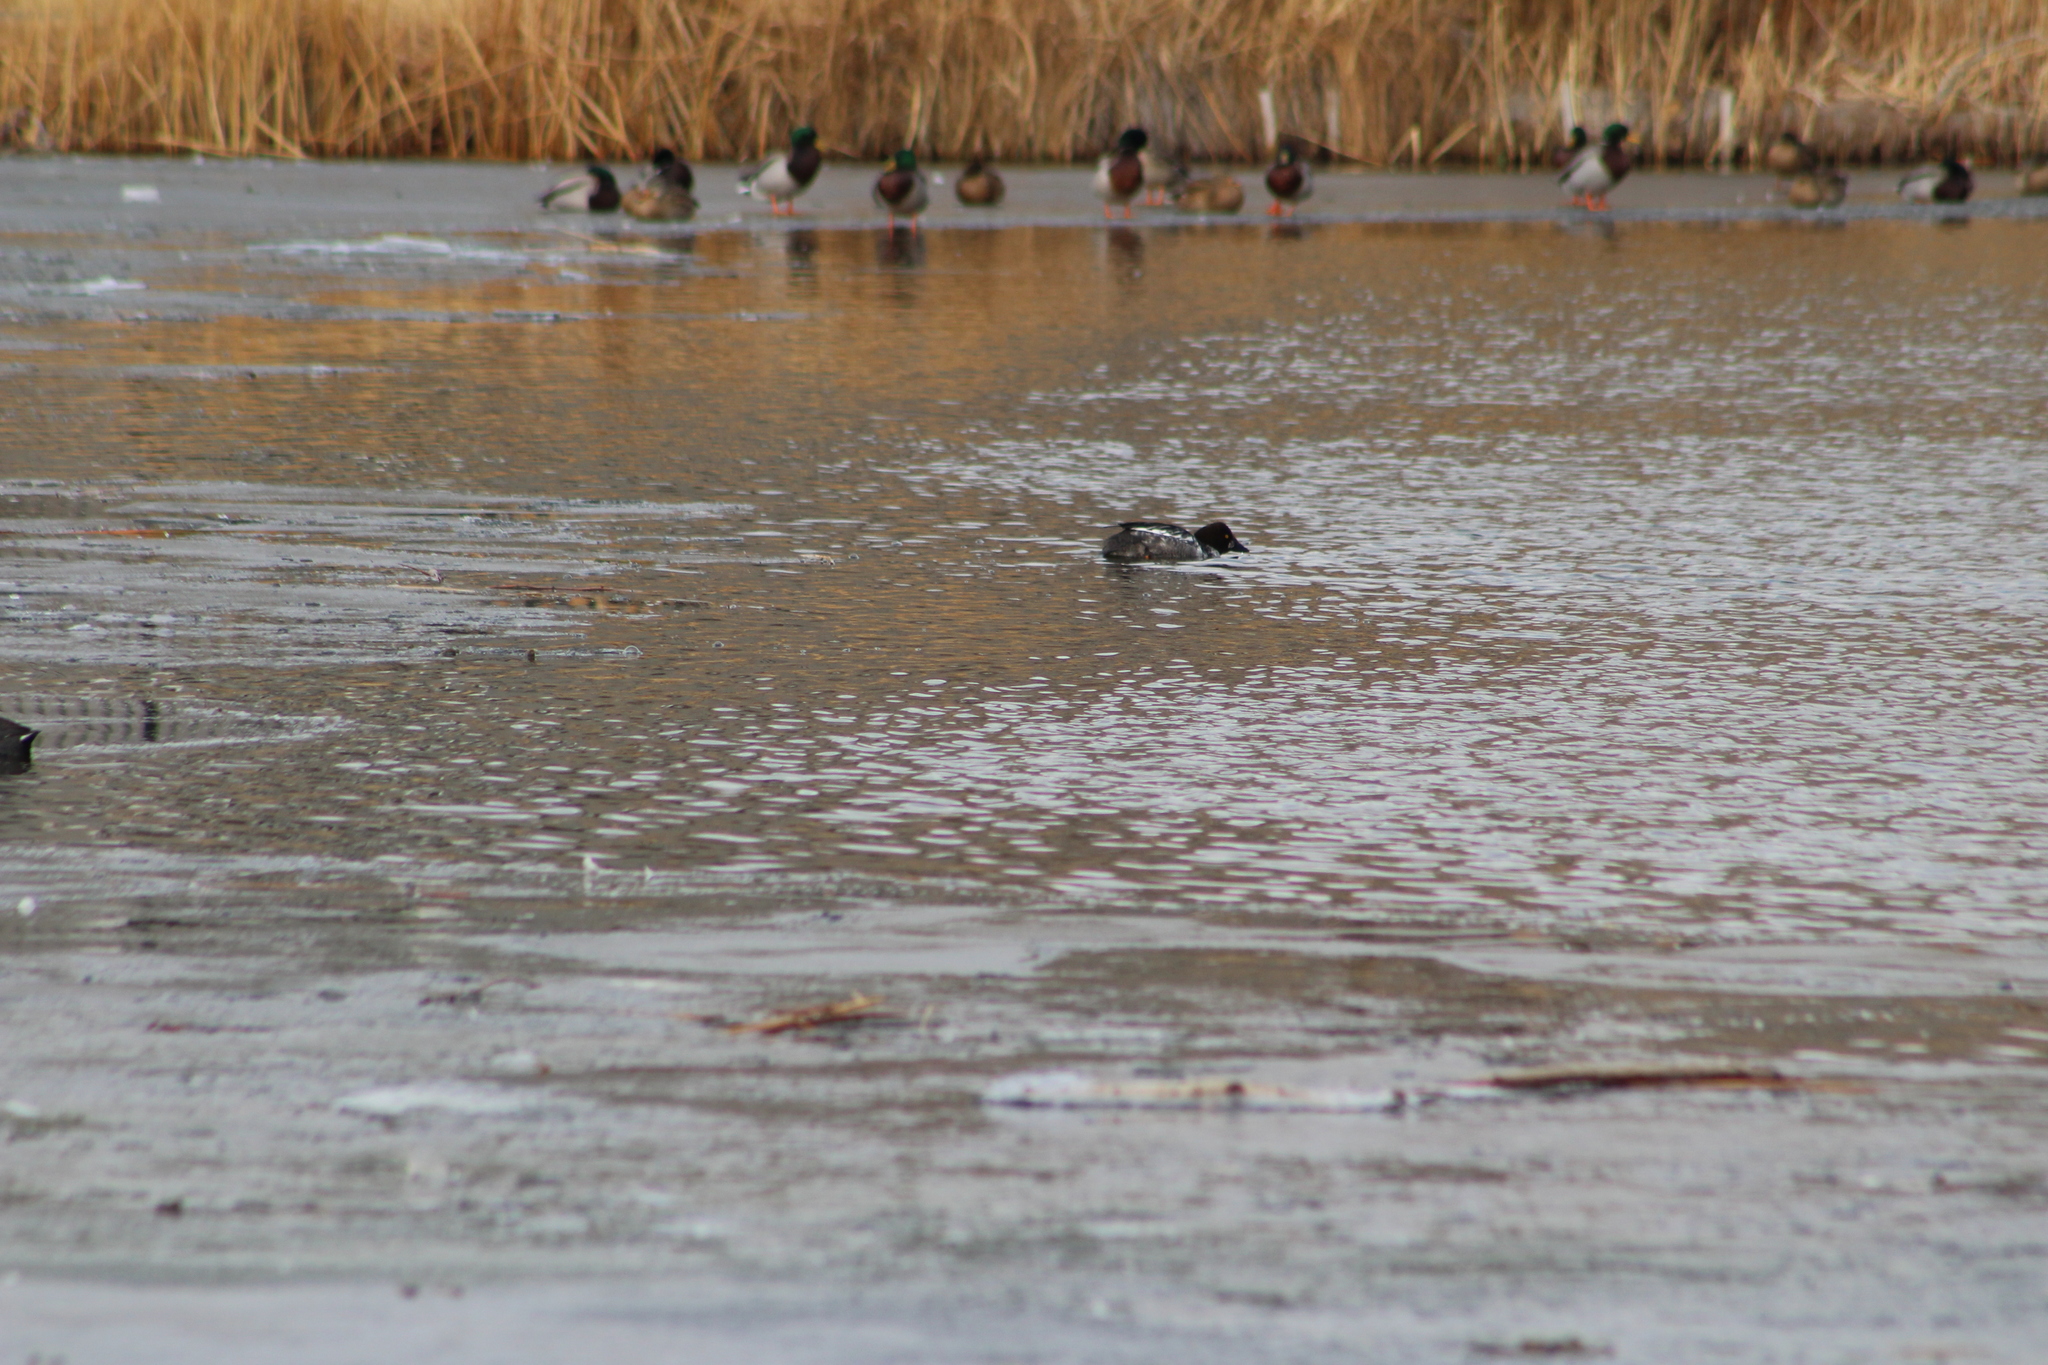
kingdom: Animalia
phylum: Chordata
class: Aves
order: Anseriformes
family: Anatidae
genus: Bucephala
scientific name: Bucephala clangula
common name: Common goldeneye
